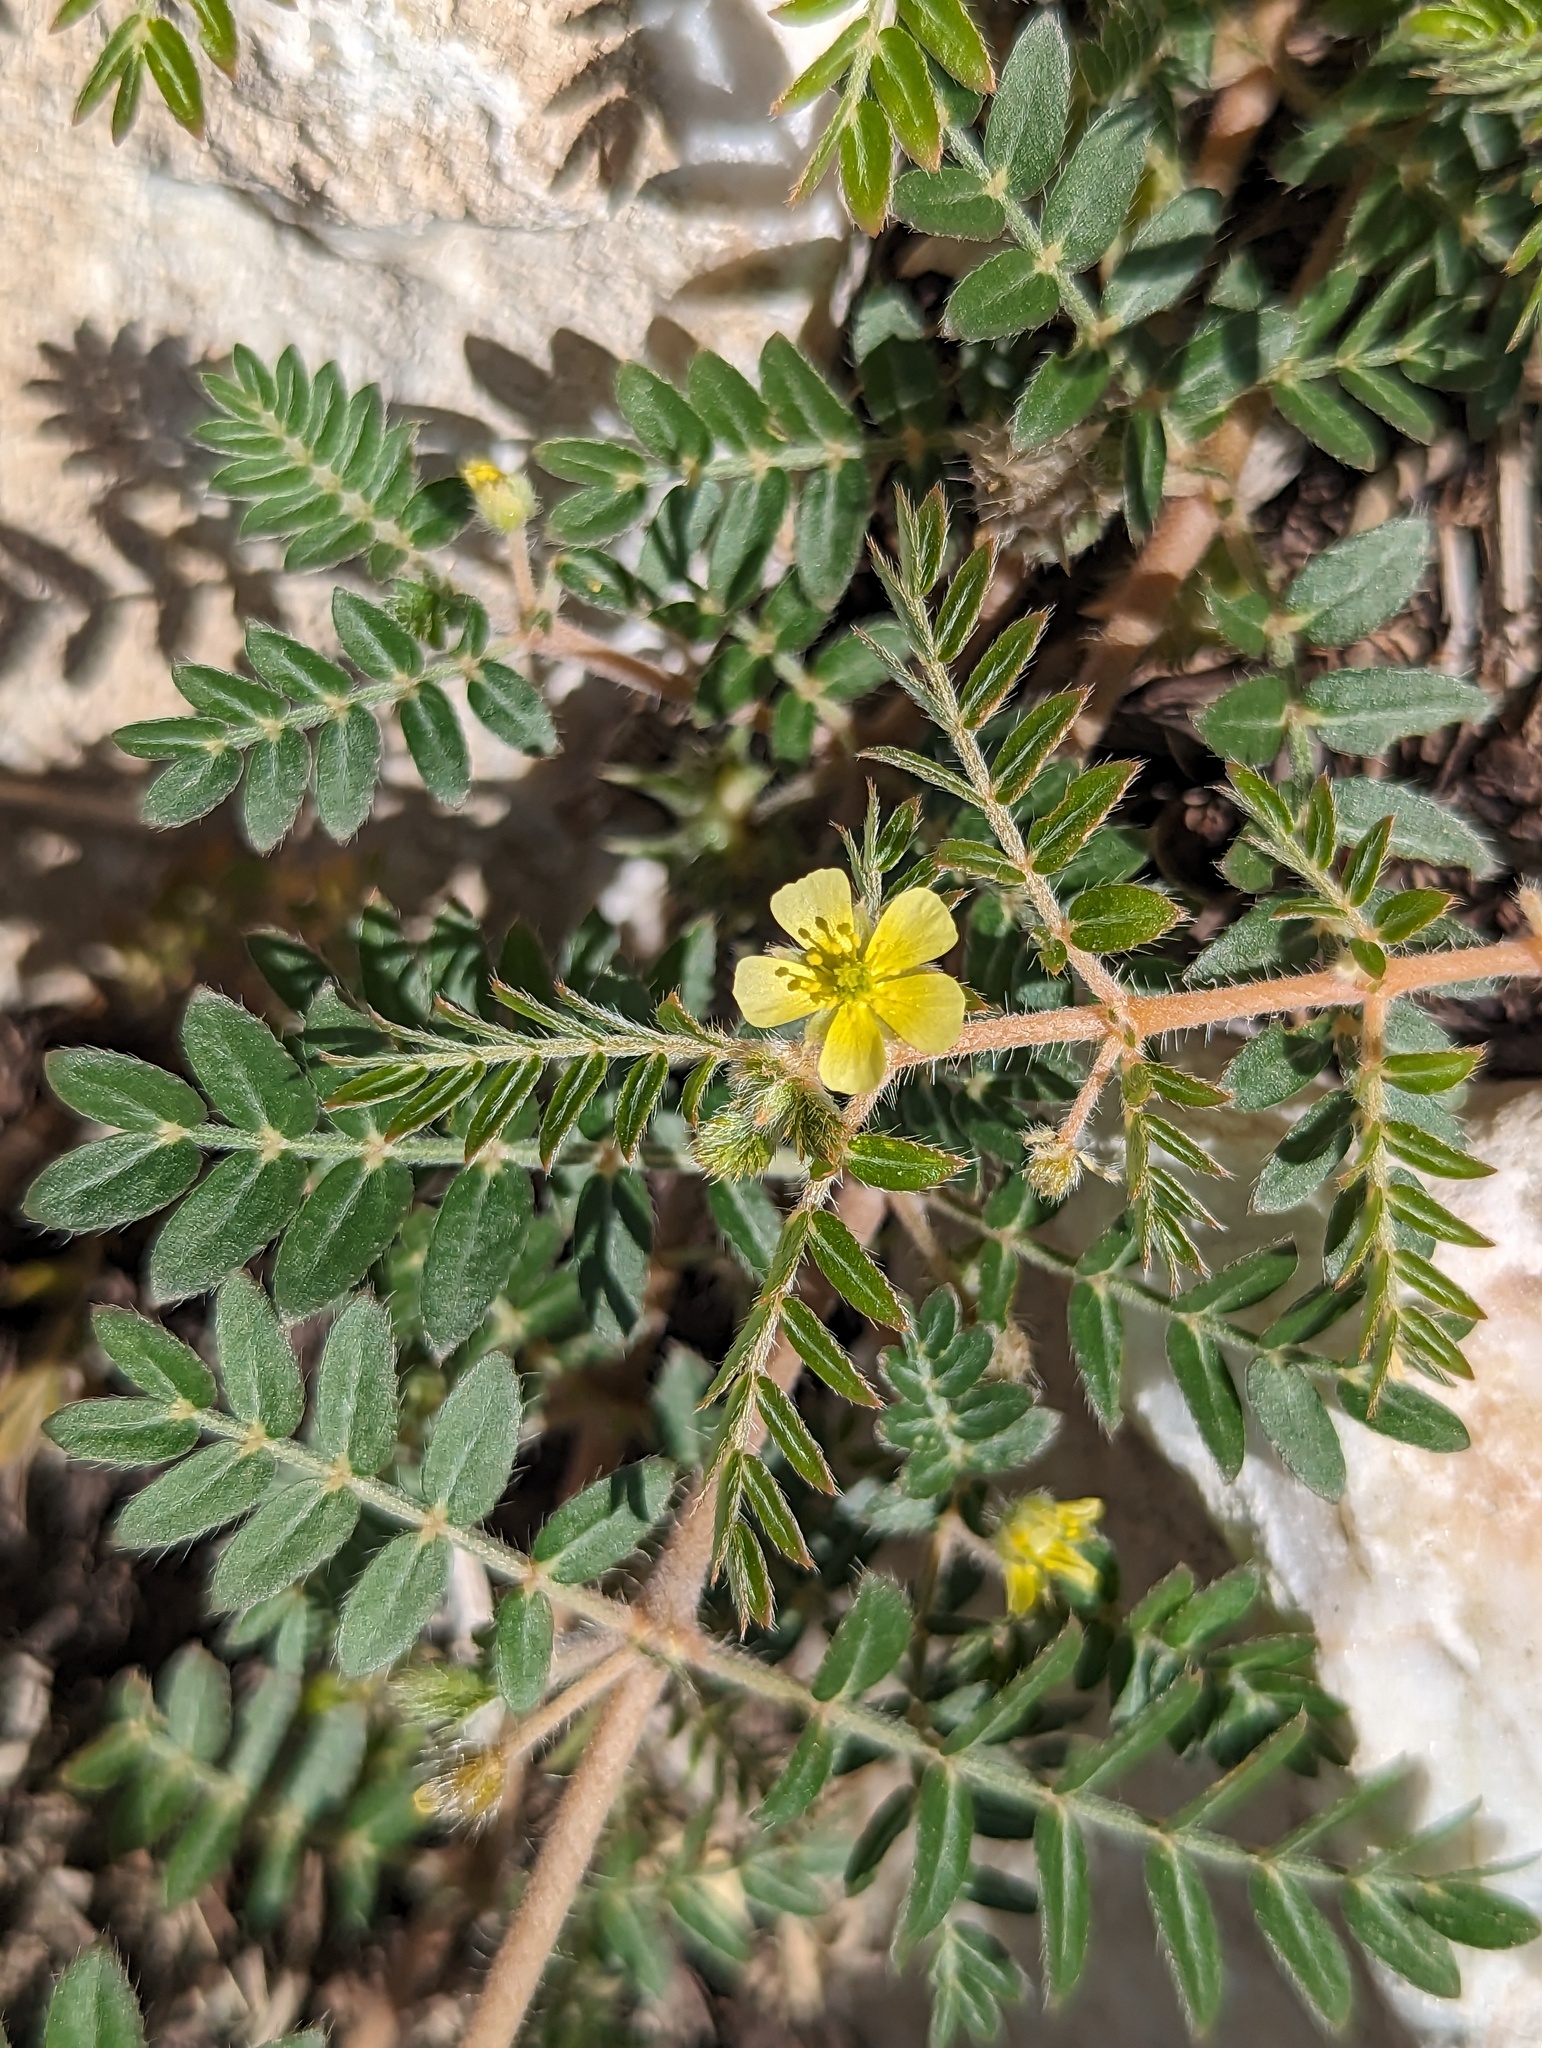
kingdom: Plantae
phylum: Tracheophyta
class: Magnoliopsida
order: Zygophyllales
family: Zygophyllaceae
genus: Tribulus
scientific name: Tribulus terrestris
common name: Puncturevine
